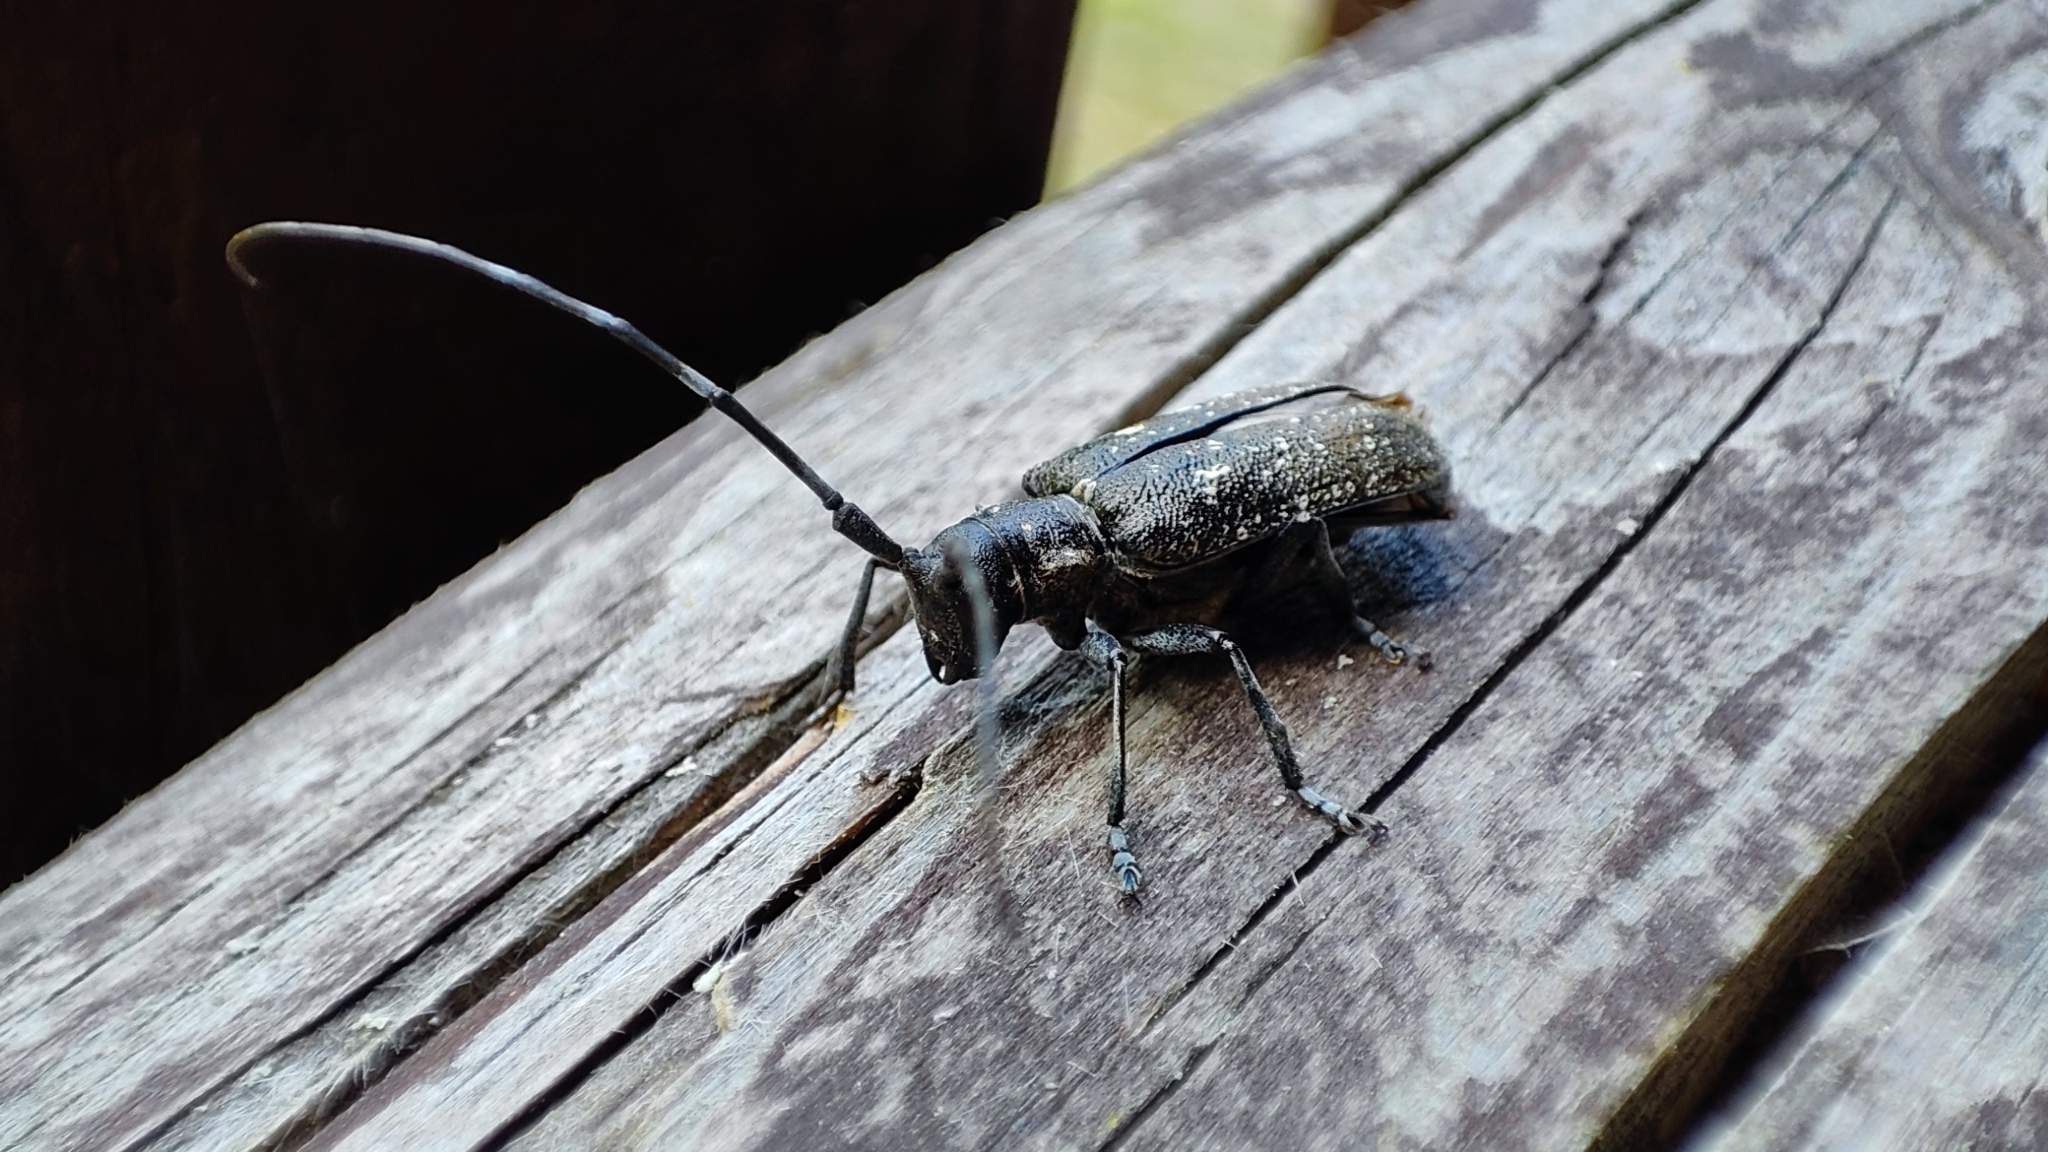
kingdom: Animalia
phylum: Arthropoda
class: Insecta
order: Coleoptera
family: Cerambycidae
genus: Monochamus
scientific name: Monochamus sutor
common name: Pine sawyer
